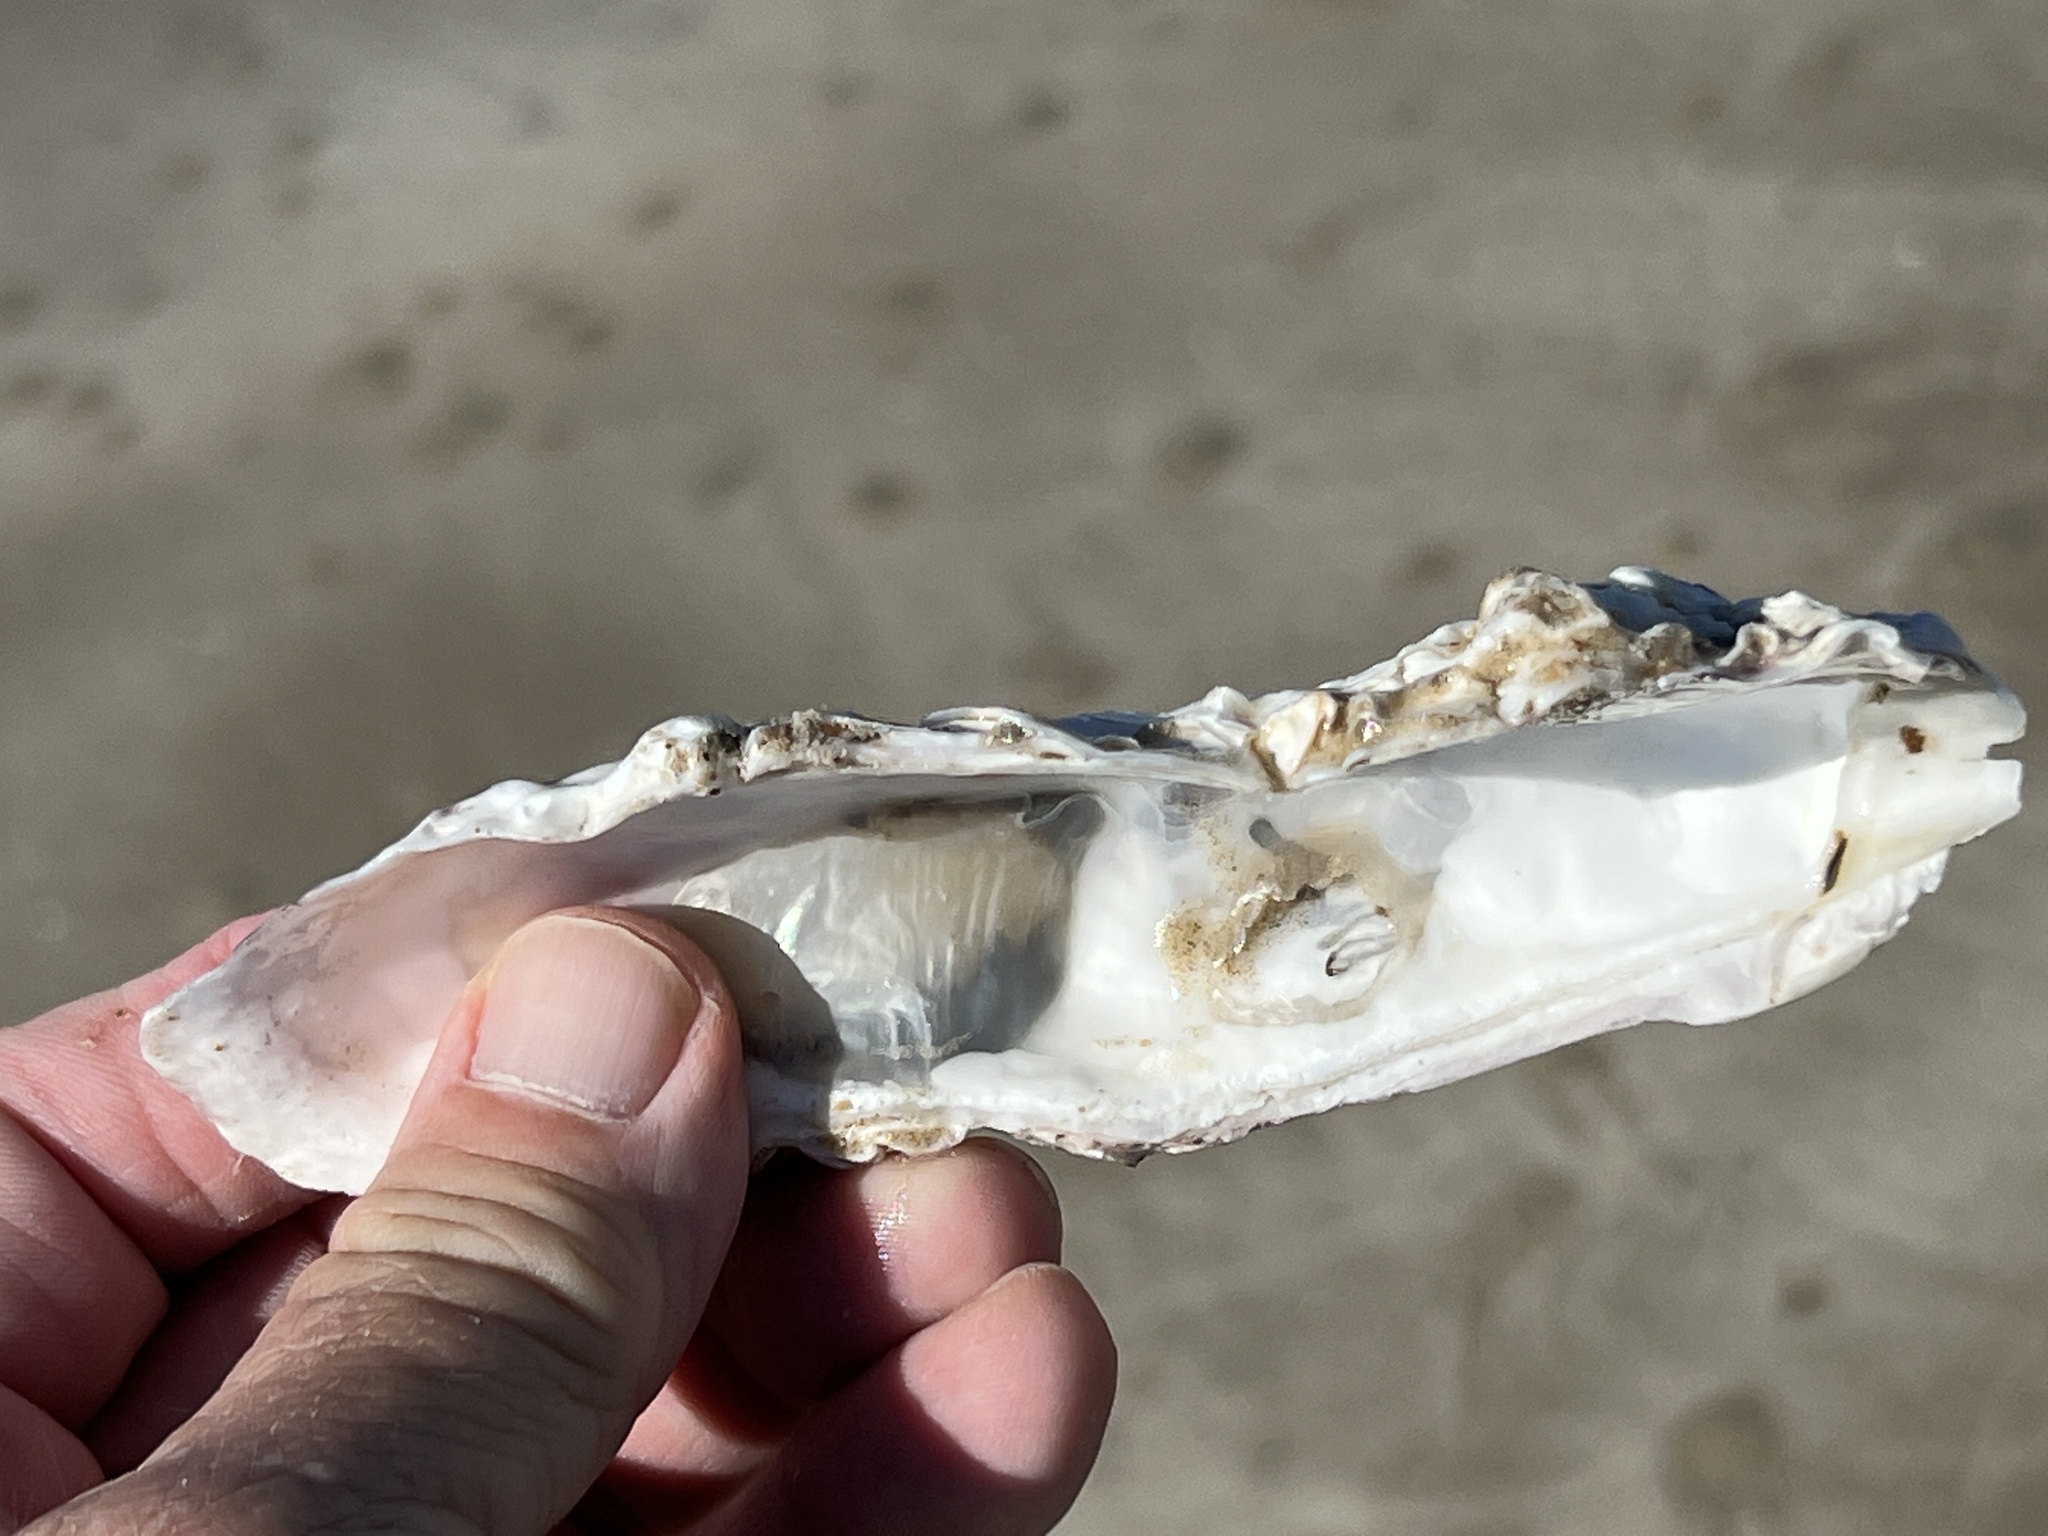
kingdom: Animalia
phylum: Mollusca
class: Bivalvia
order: Ostreida
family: Ostreidae
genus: Crassostrea
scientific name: Crassostrea virginica
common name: American oyster
